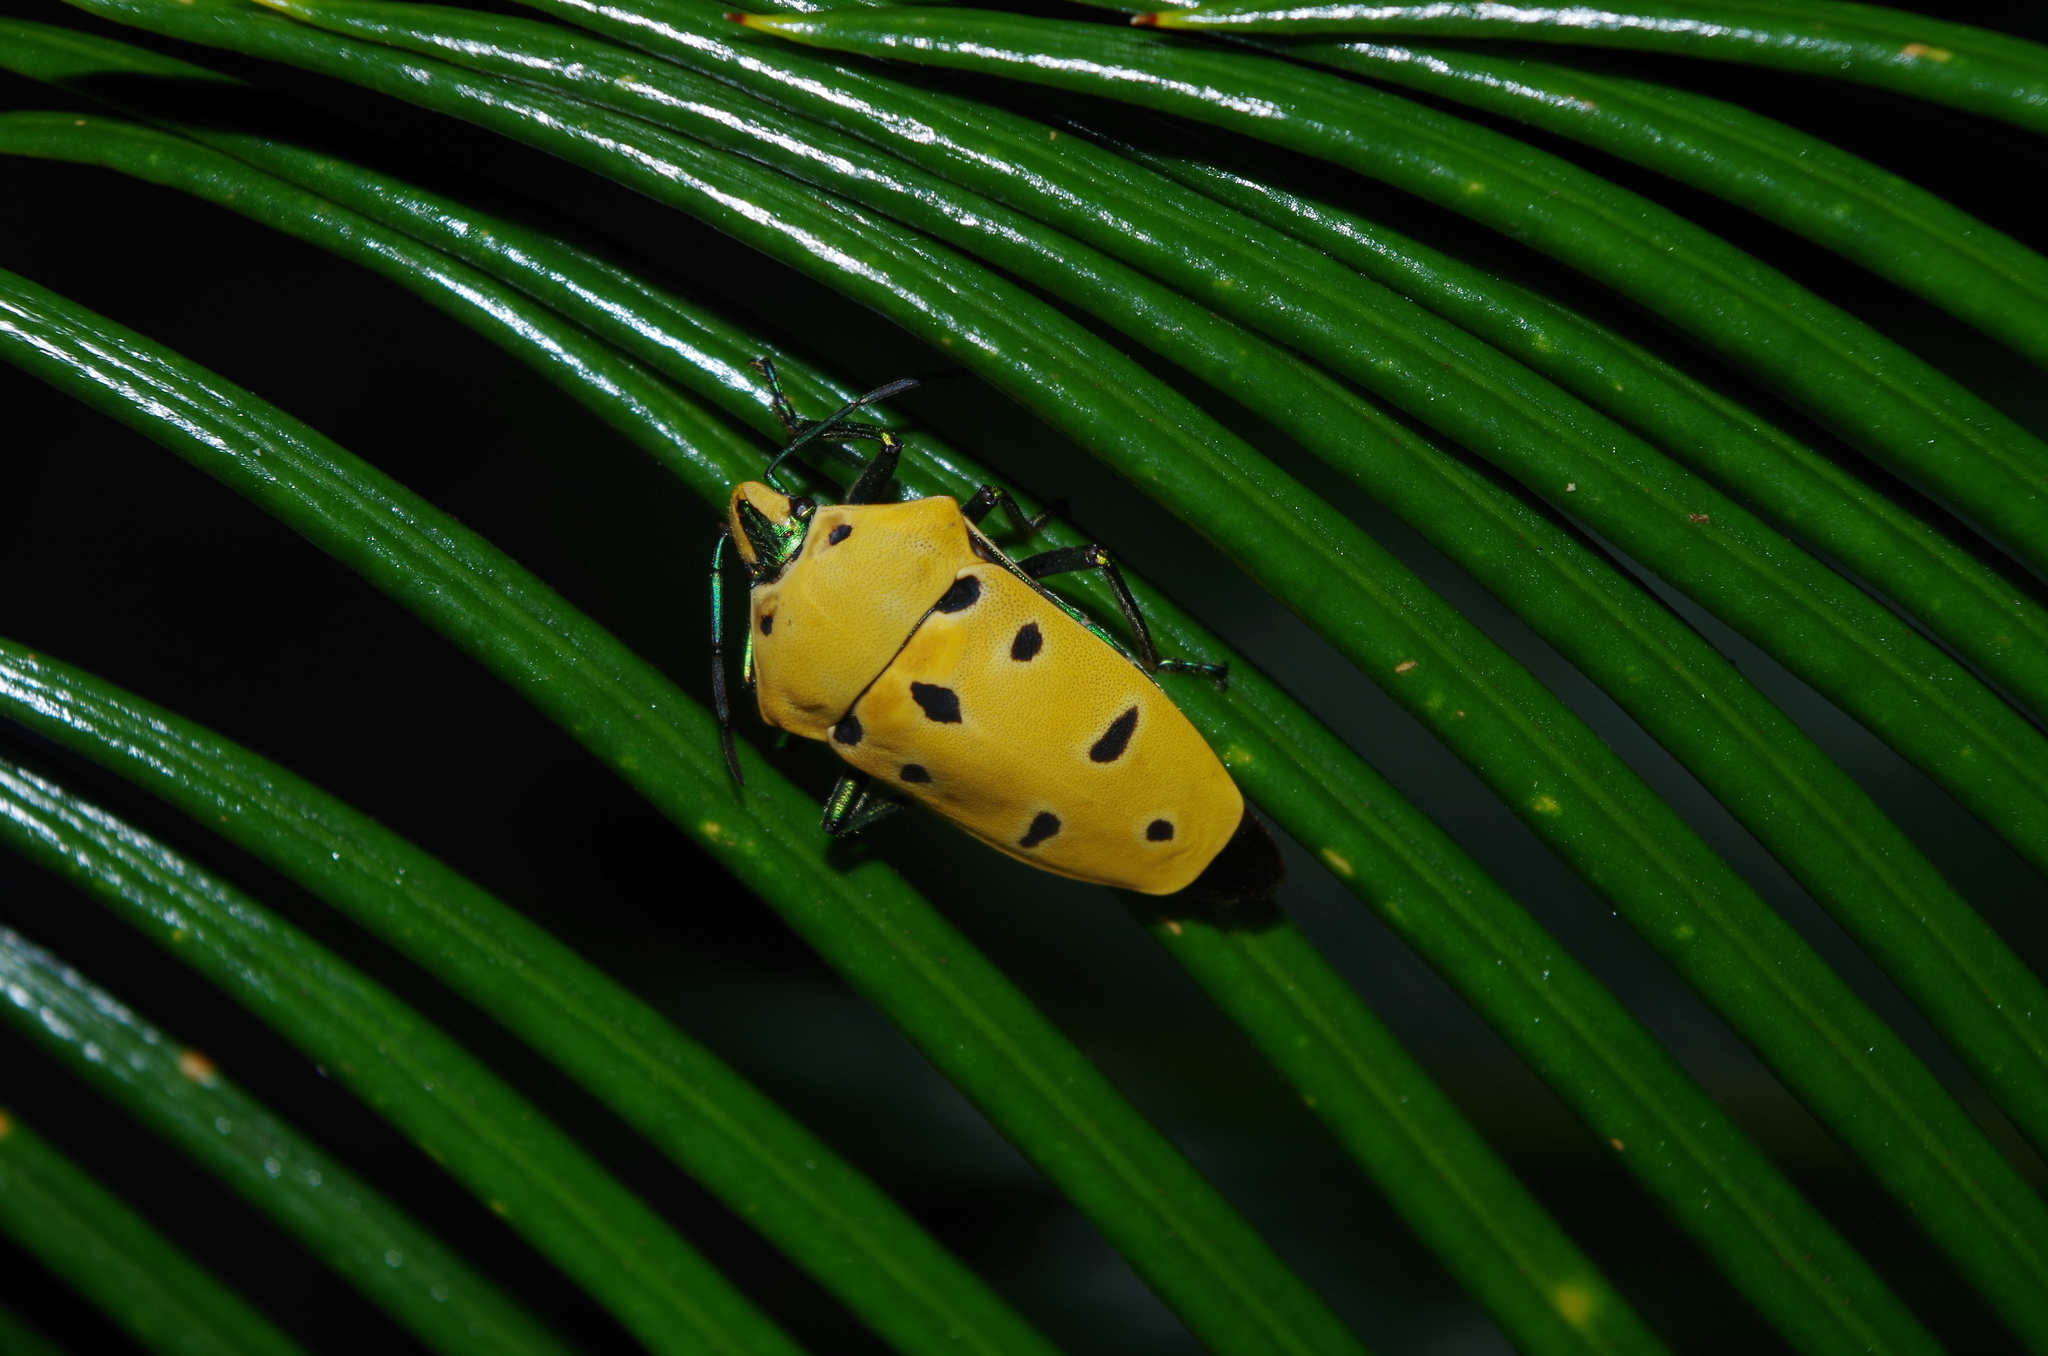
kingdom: Animalia
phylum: Arthropoda
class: Insecta
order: Hemiptera
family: Scutelleridae
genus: Cantao
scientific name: Cantao ocellatus
